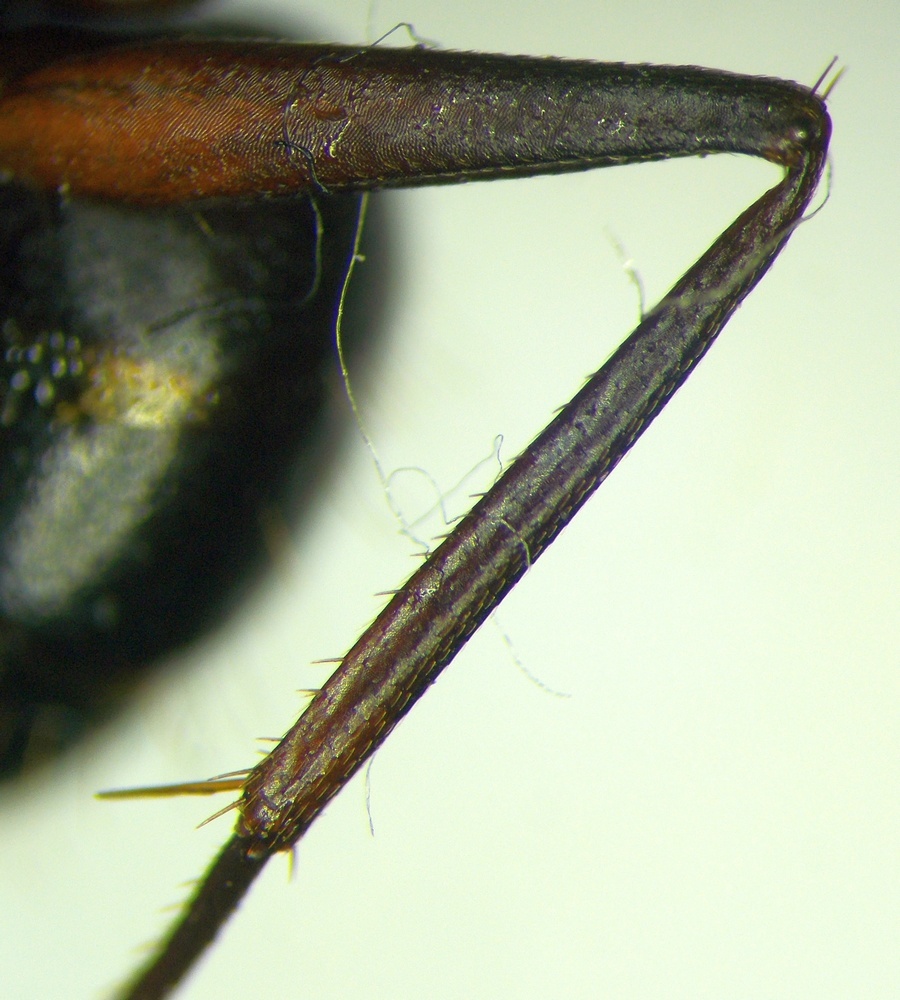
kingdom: Animalia
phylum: Arthropoda
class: Insecta
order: Hymenoptera
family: Formicidae
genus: Camponotus
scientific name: Camponotus sanctus
